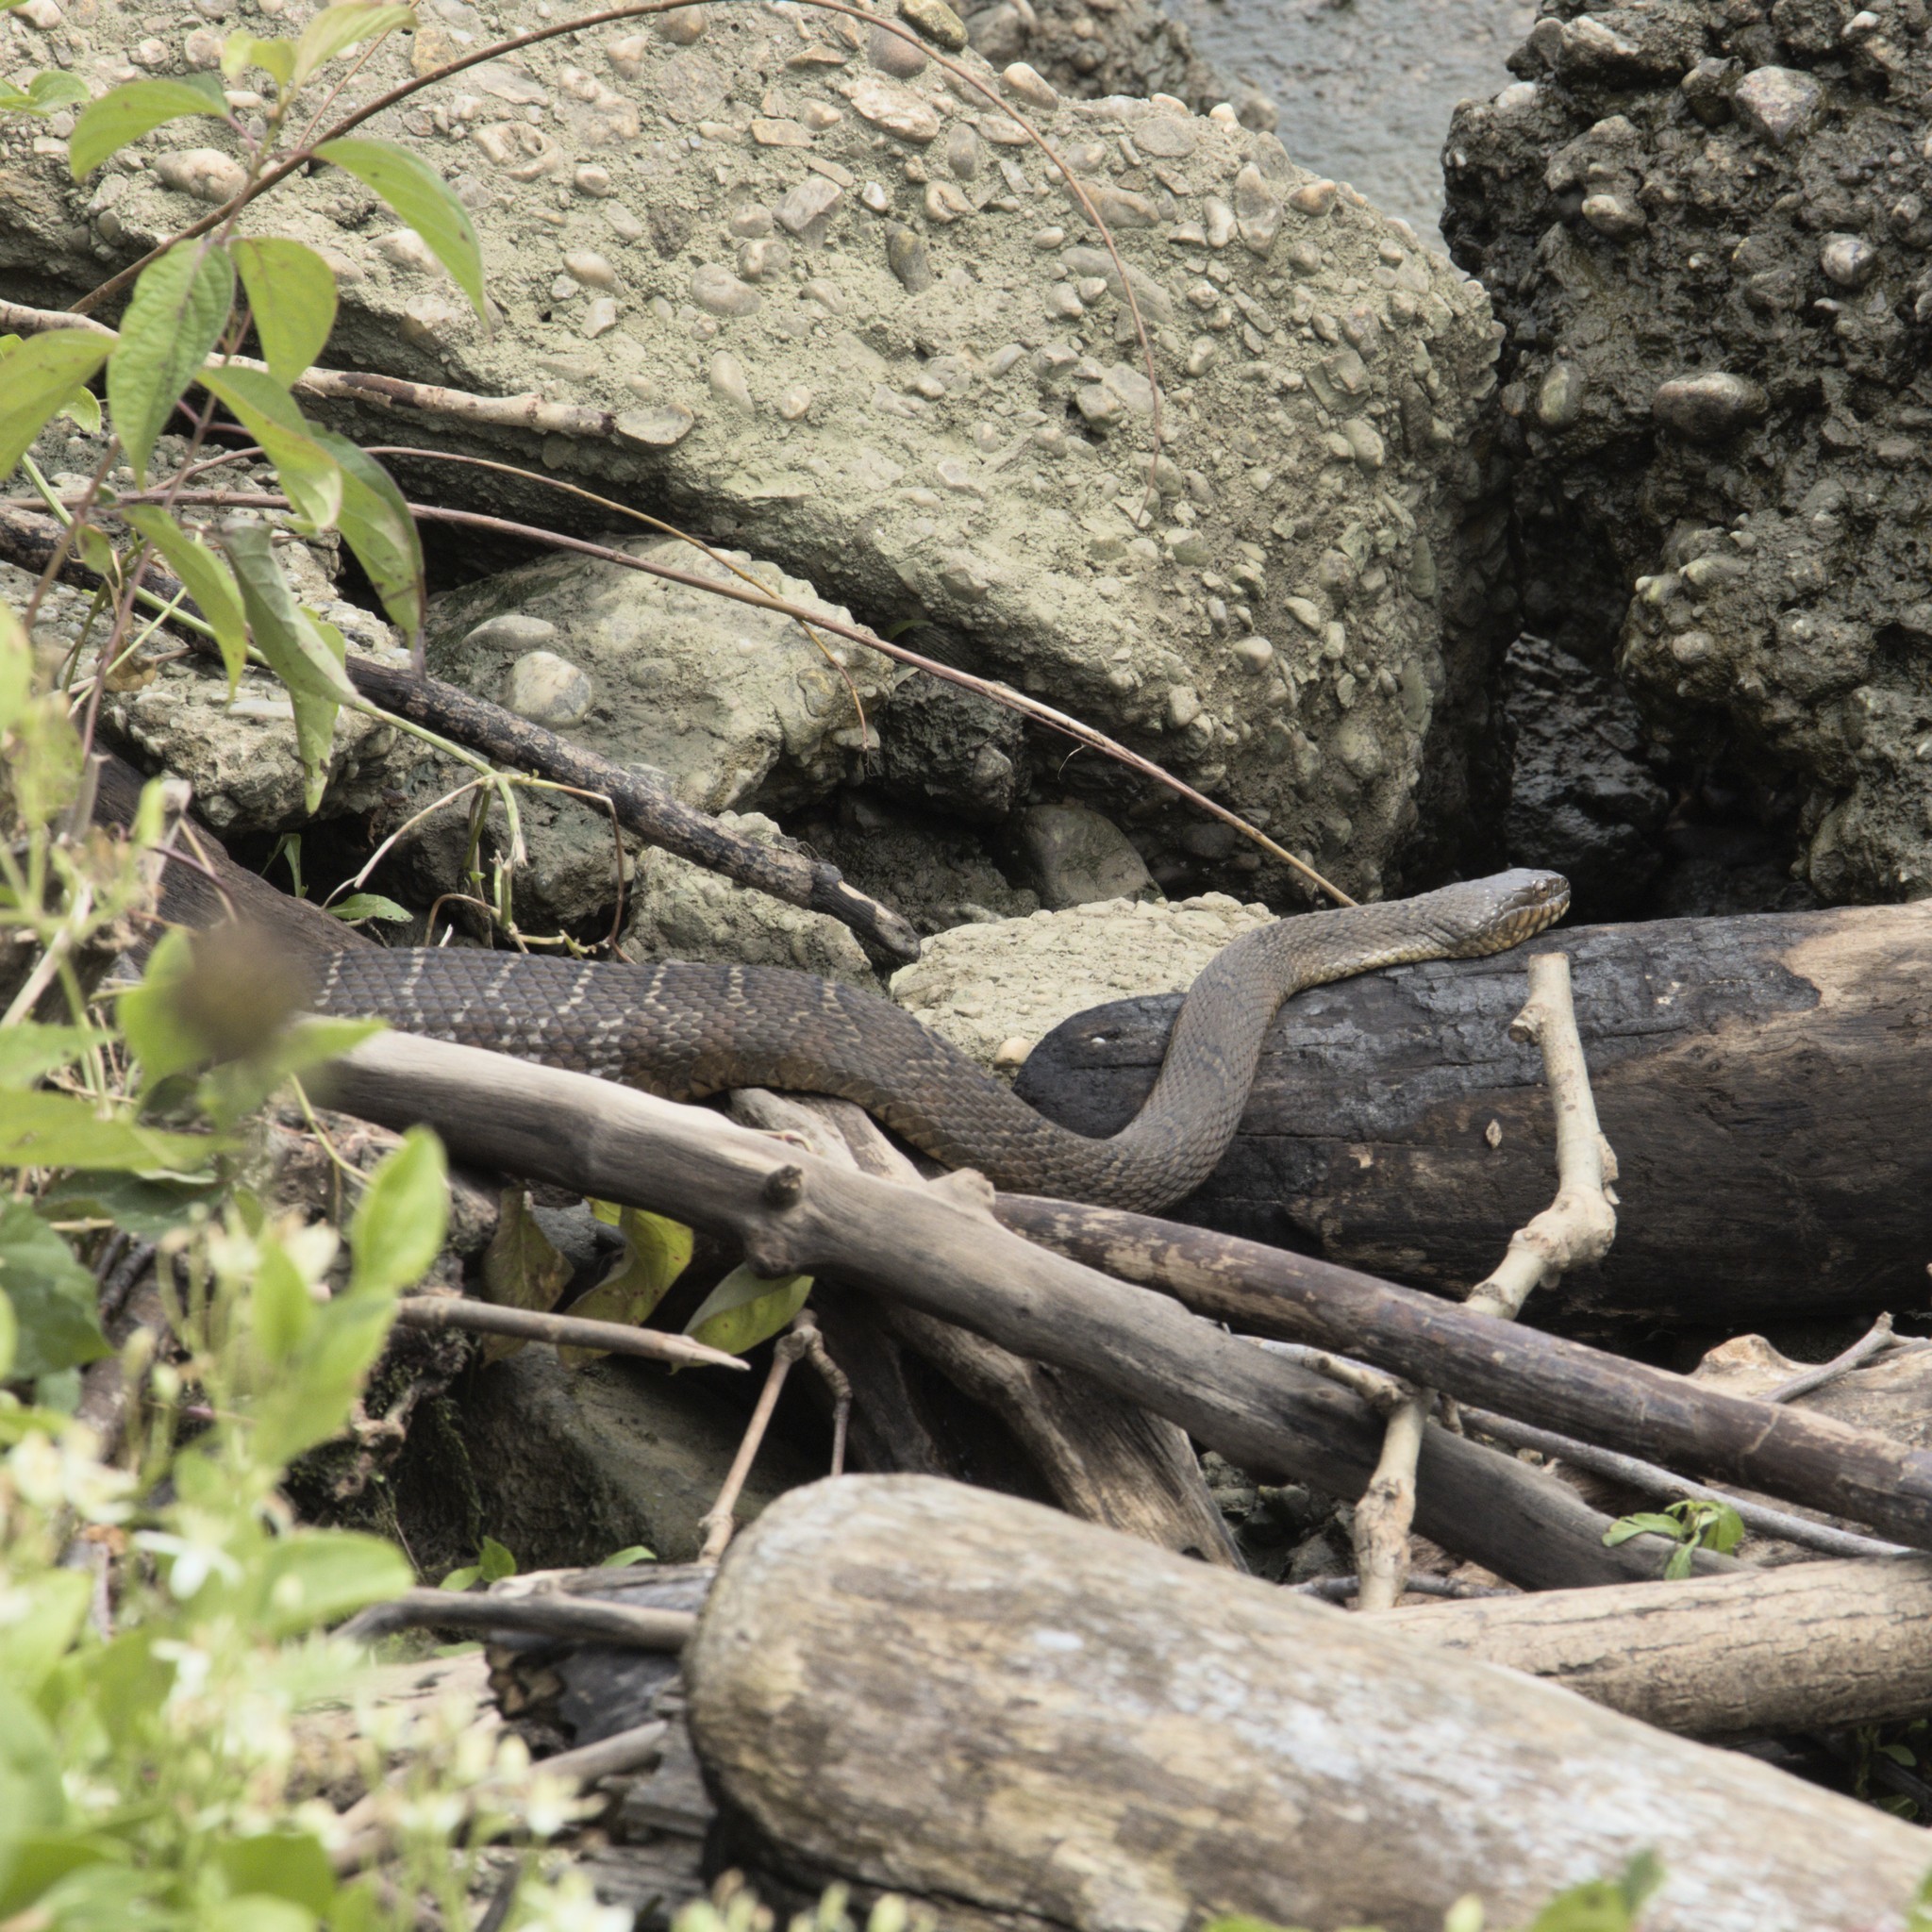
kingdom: Animalia
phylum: Chordata
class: Squamata
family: Colubridae
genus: Nerodia
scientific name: Nerodia sipedon
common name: Northern water snake
